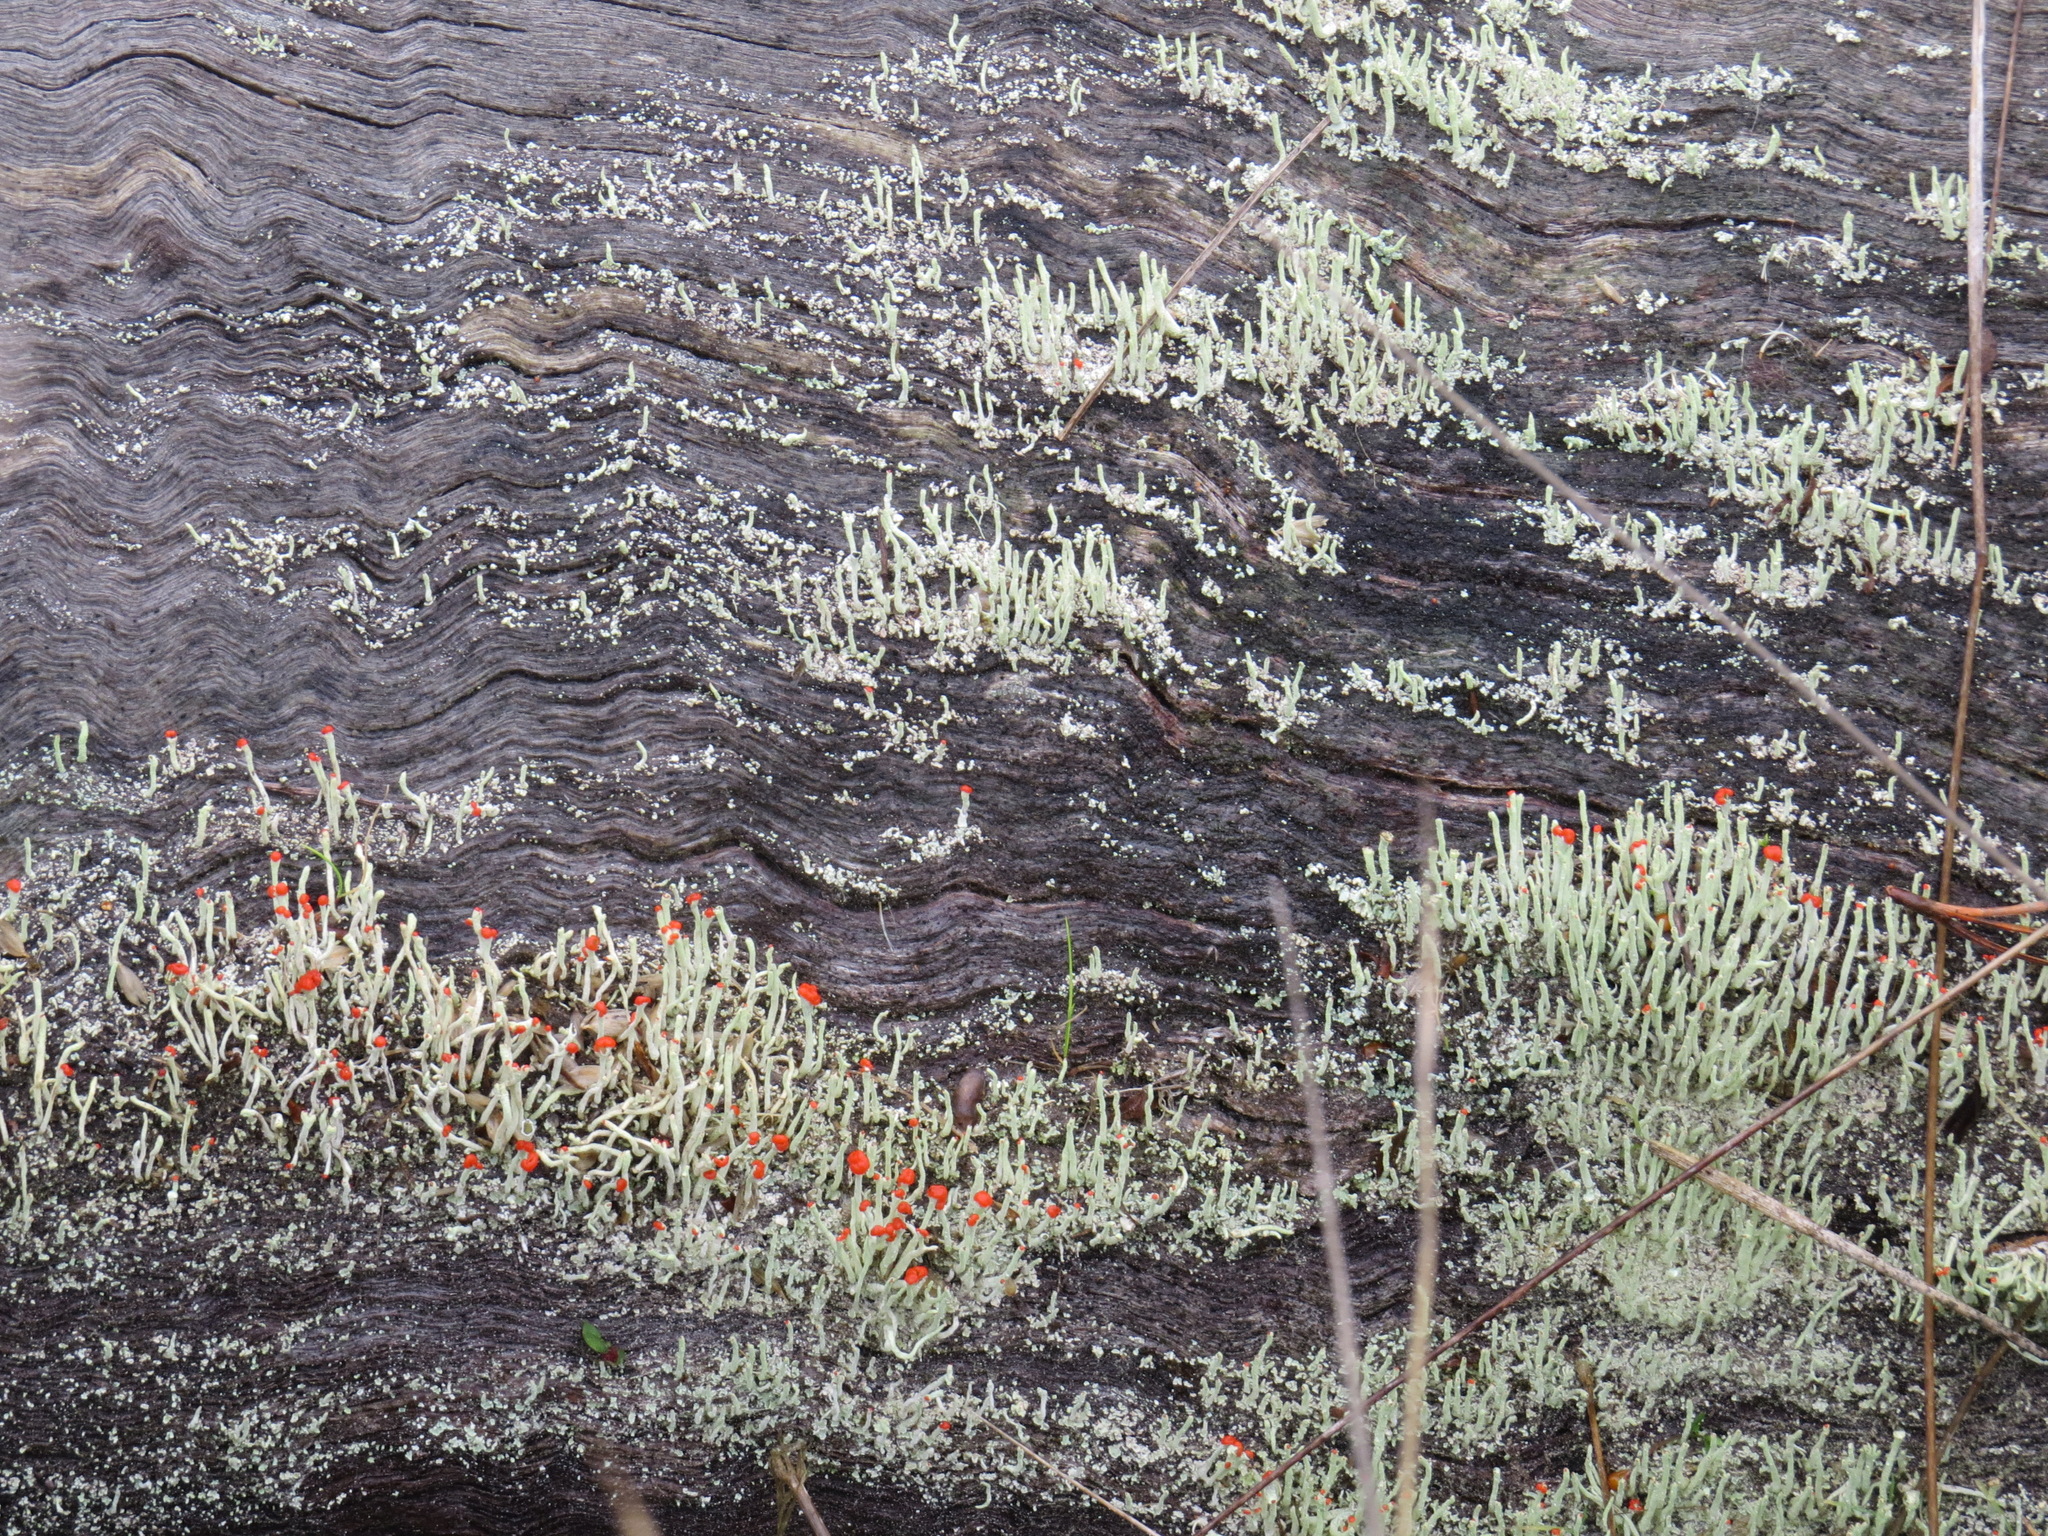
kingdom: Fungi
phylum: Ascomycota
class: Lecanoromycetes
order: Lecanorales
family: Cladoniaceae
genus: Cladonia
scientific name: Cladonia macilenta
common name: Lipstick powderhorn
